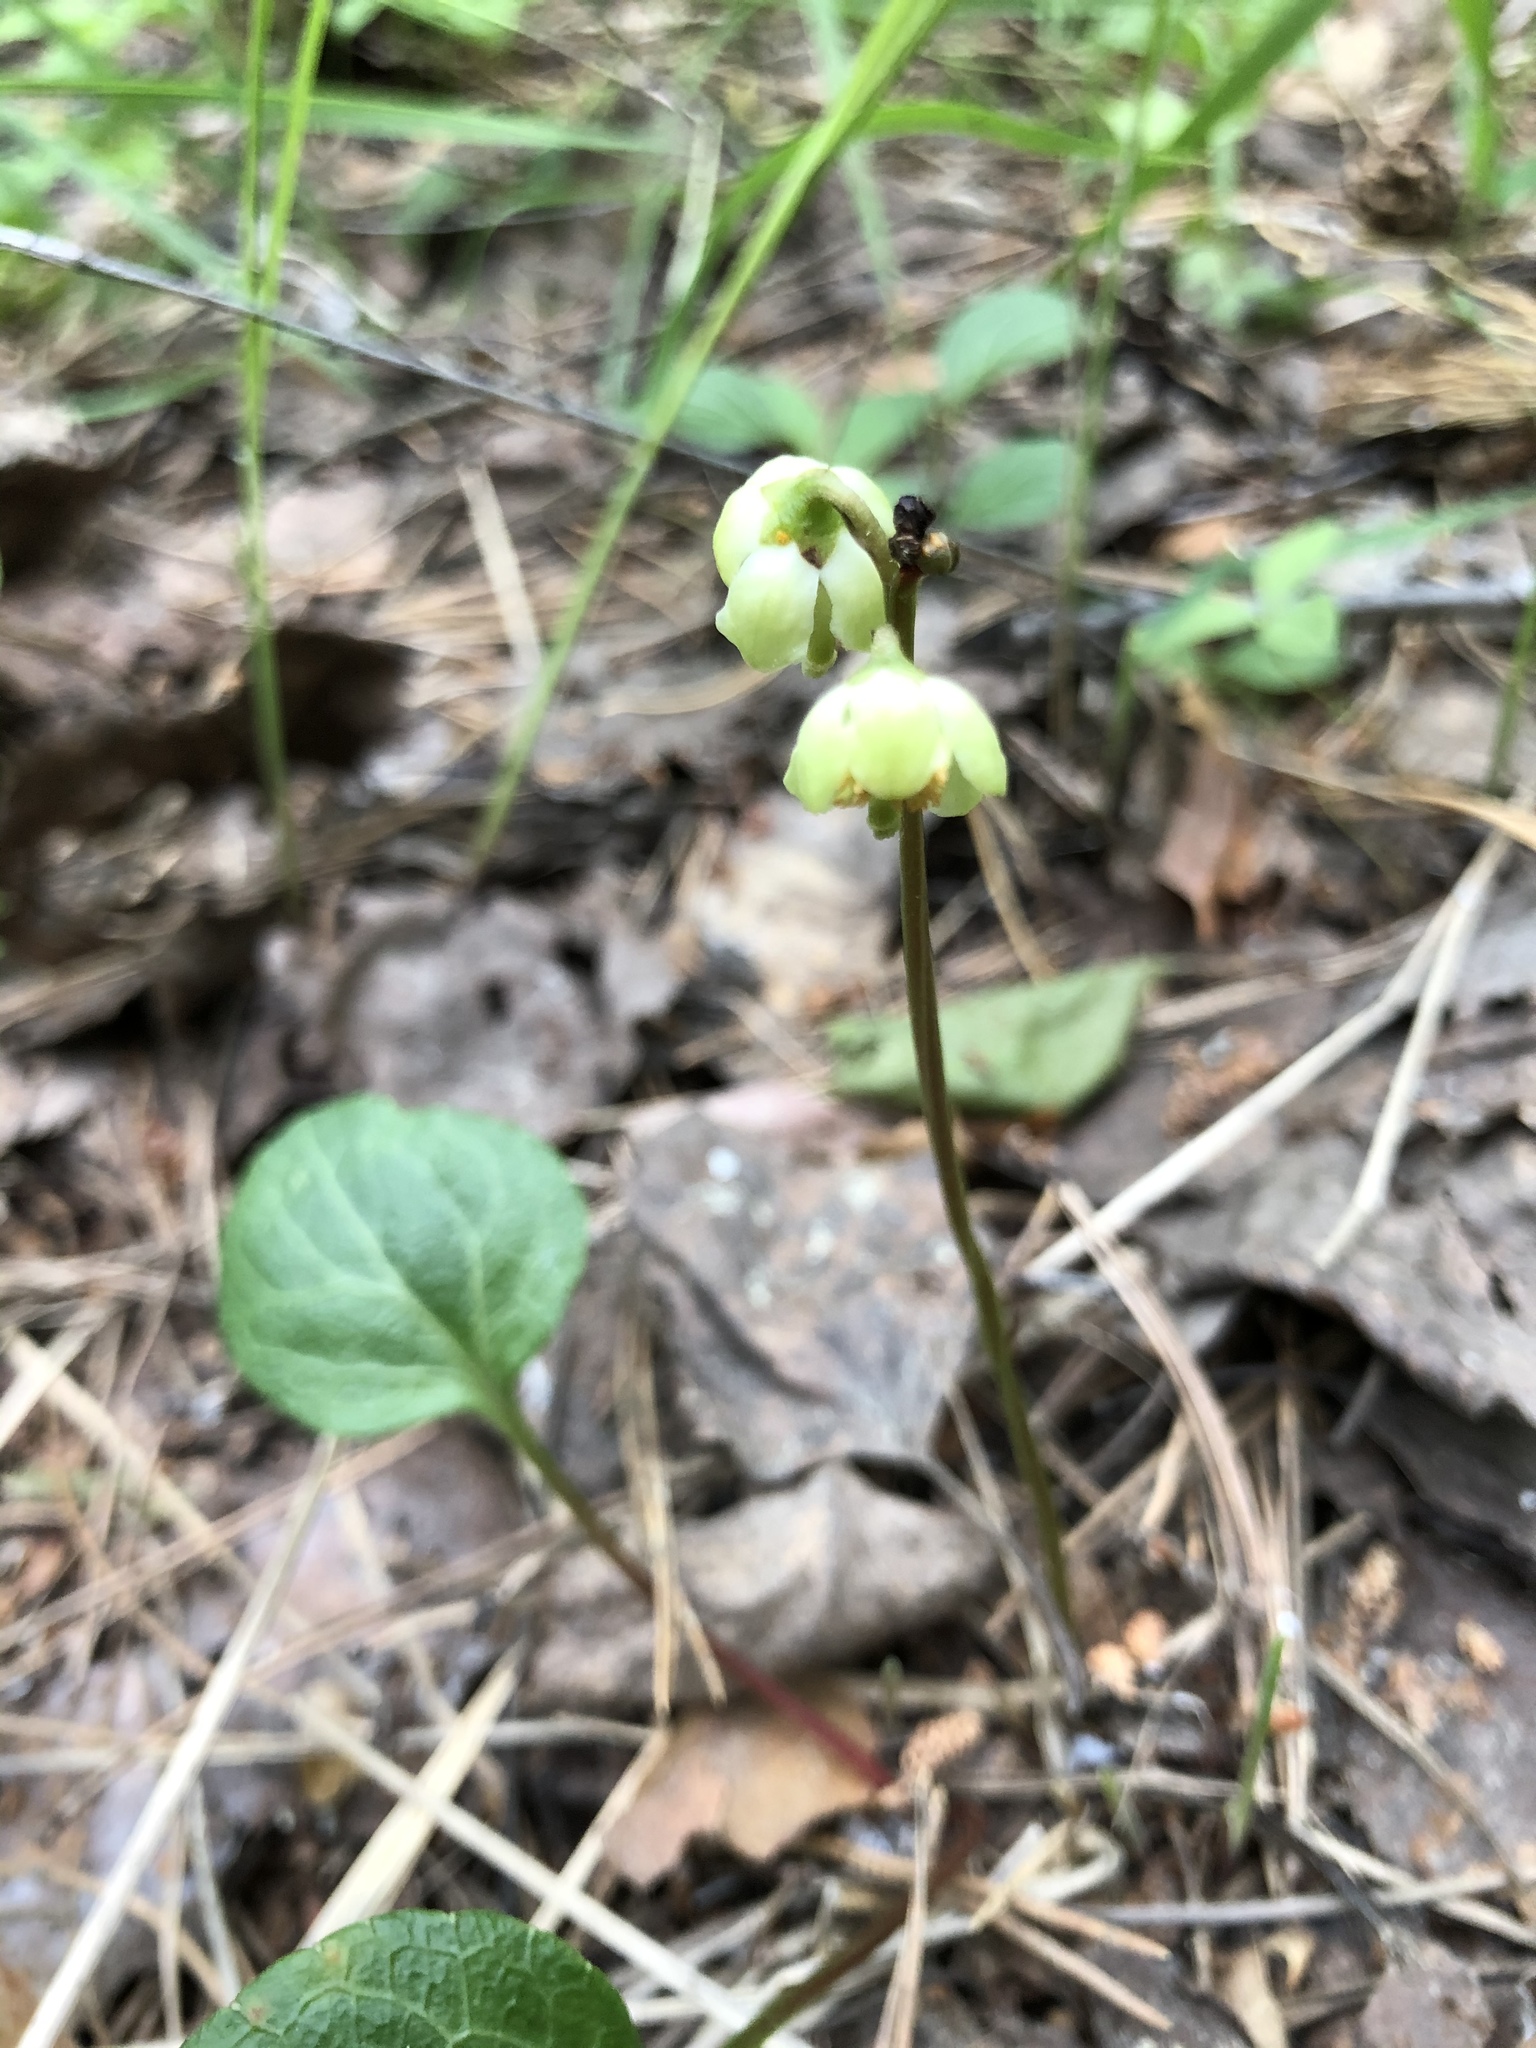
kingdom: Plantae
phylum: Tracheophyta
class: Magnoliopsida
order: Ericales
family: Ericaceae
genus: Pyrola
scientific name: Pyrola chlorantha
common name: Green wintergreen
